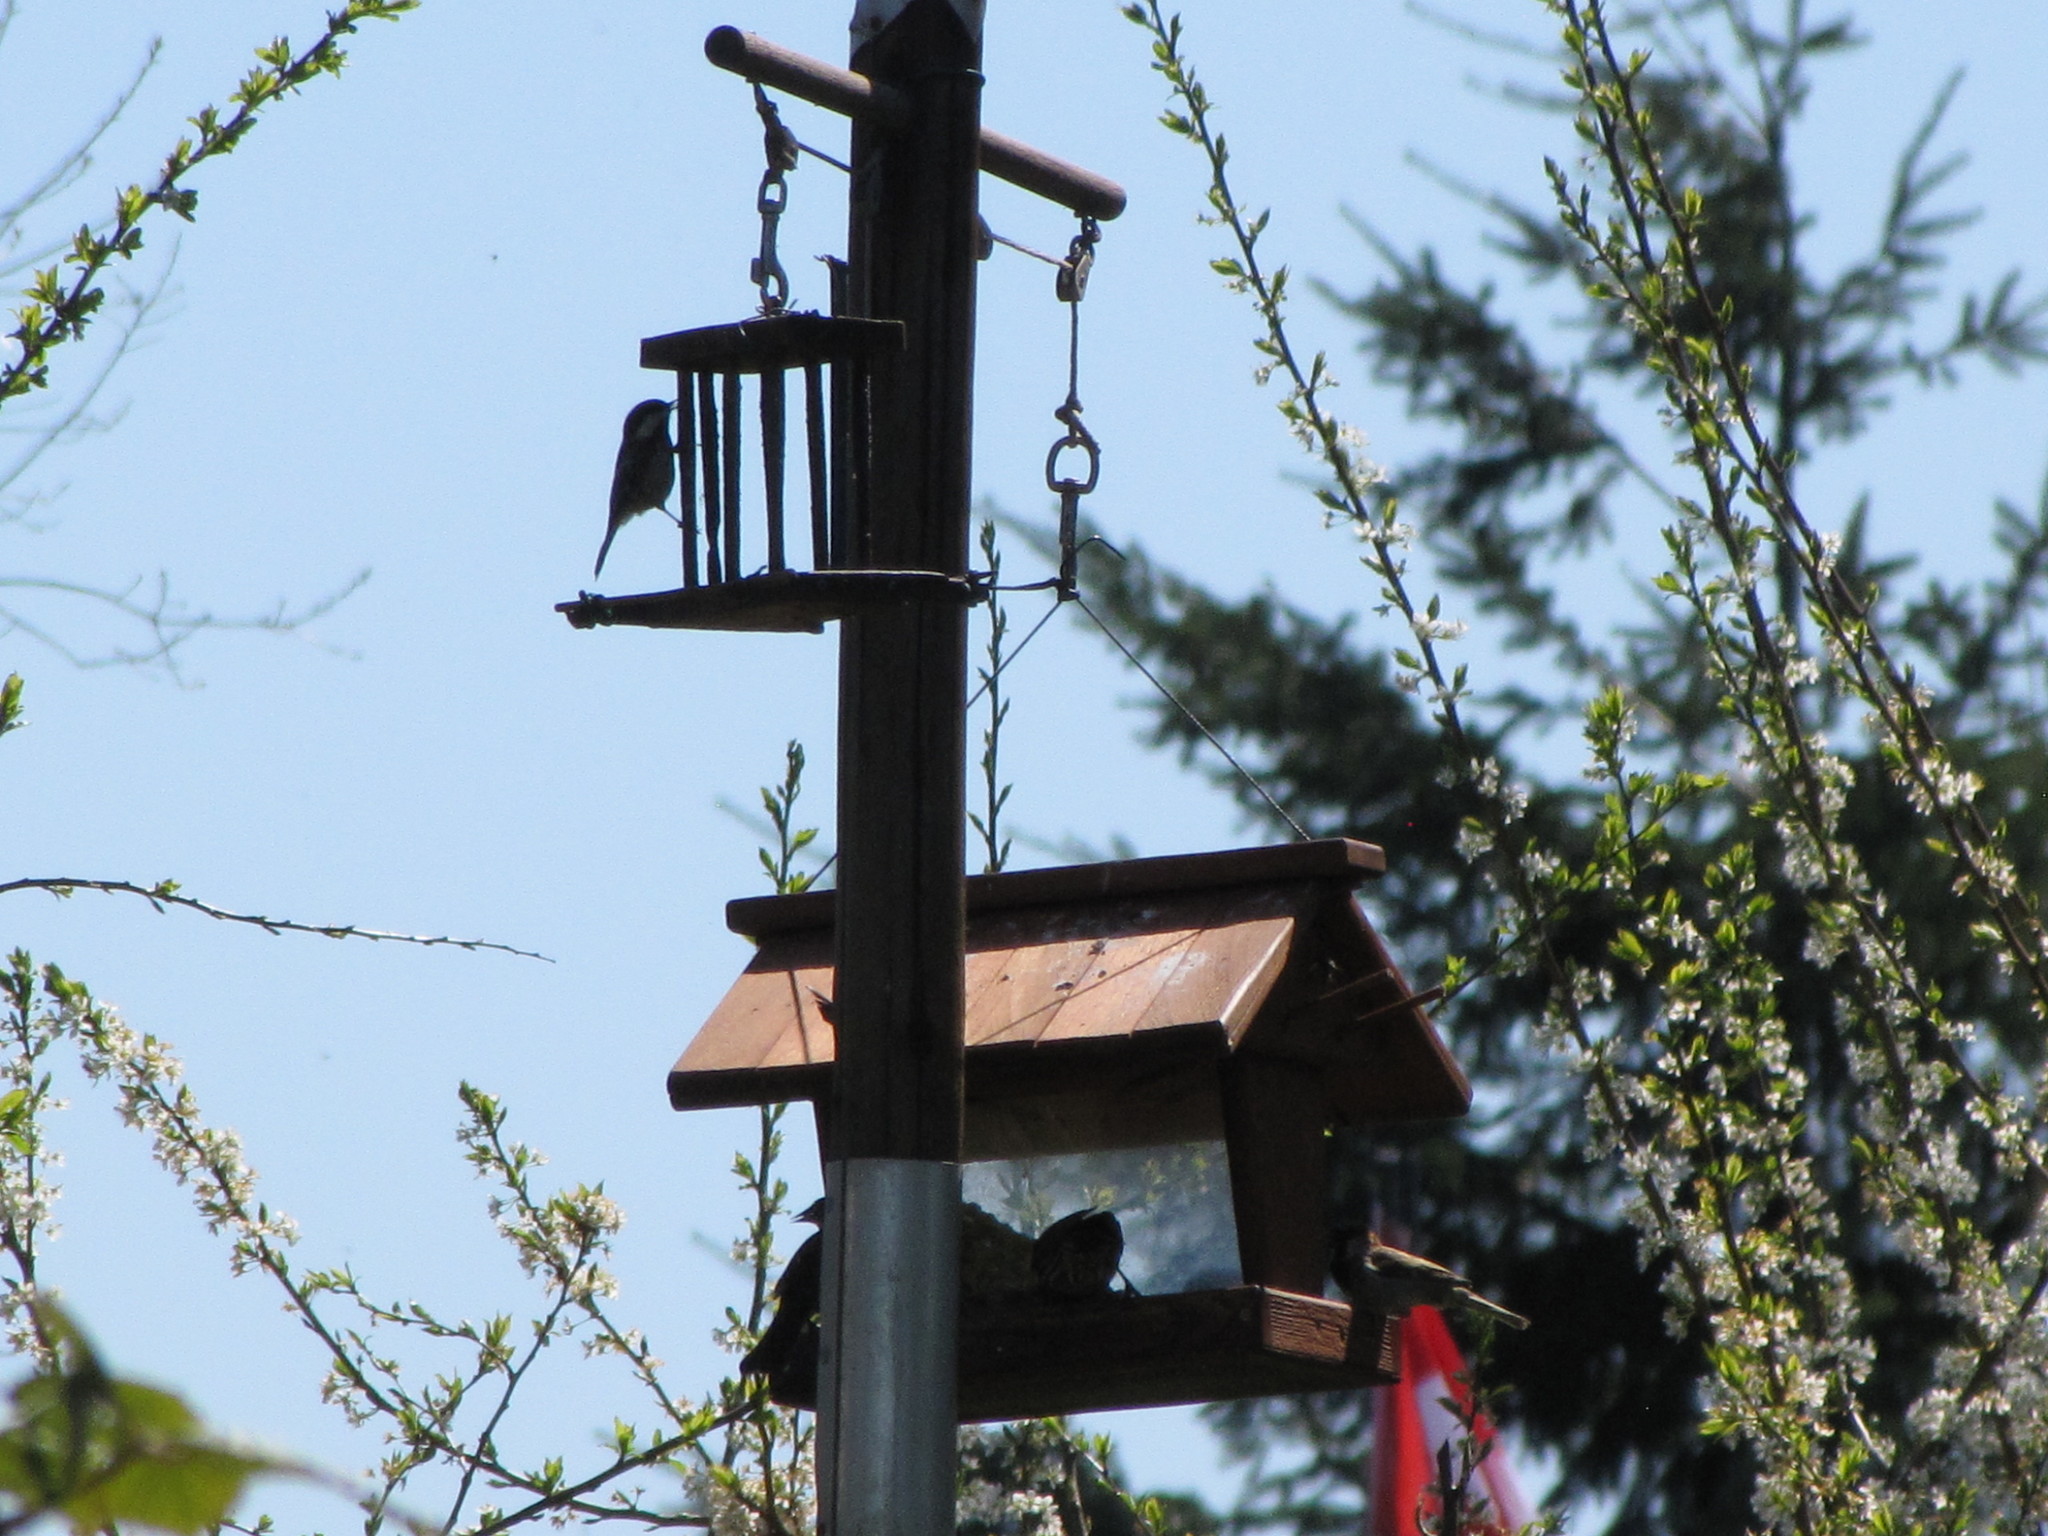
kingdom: Animalia
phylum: Chordata
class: Aves
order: Passeriformes
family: Passeridae
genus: Passer
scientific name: Passer domesticus
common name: House sparrow
